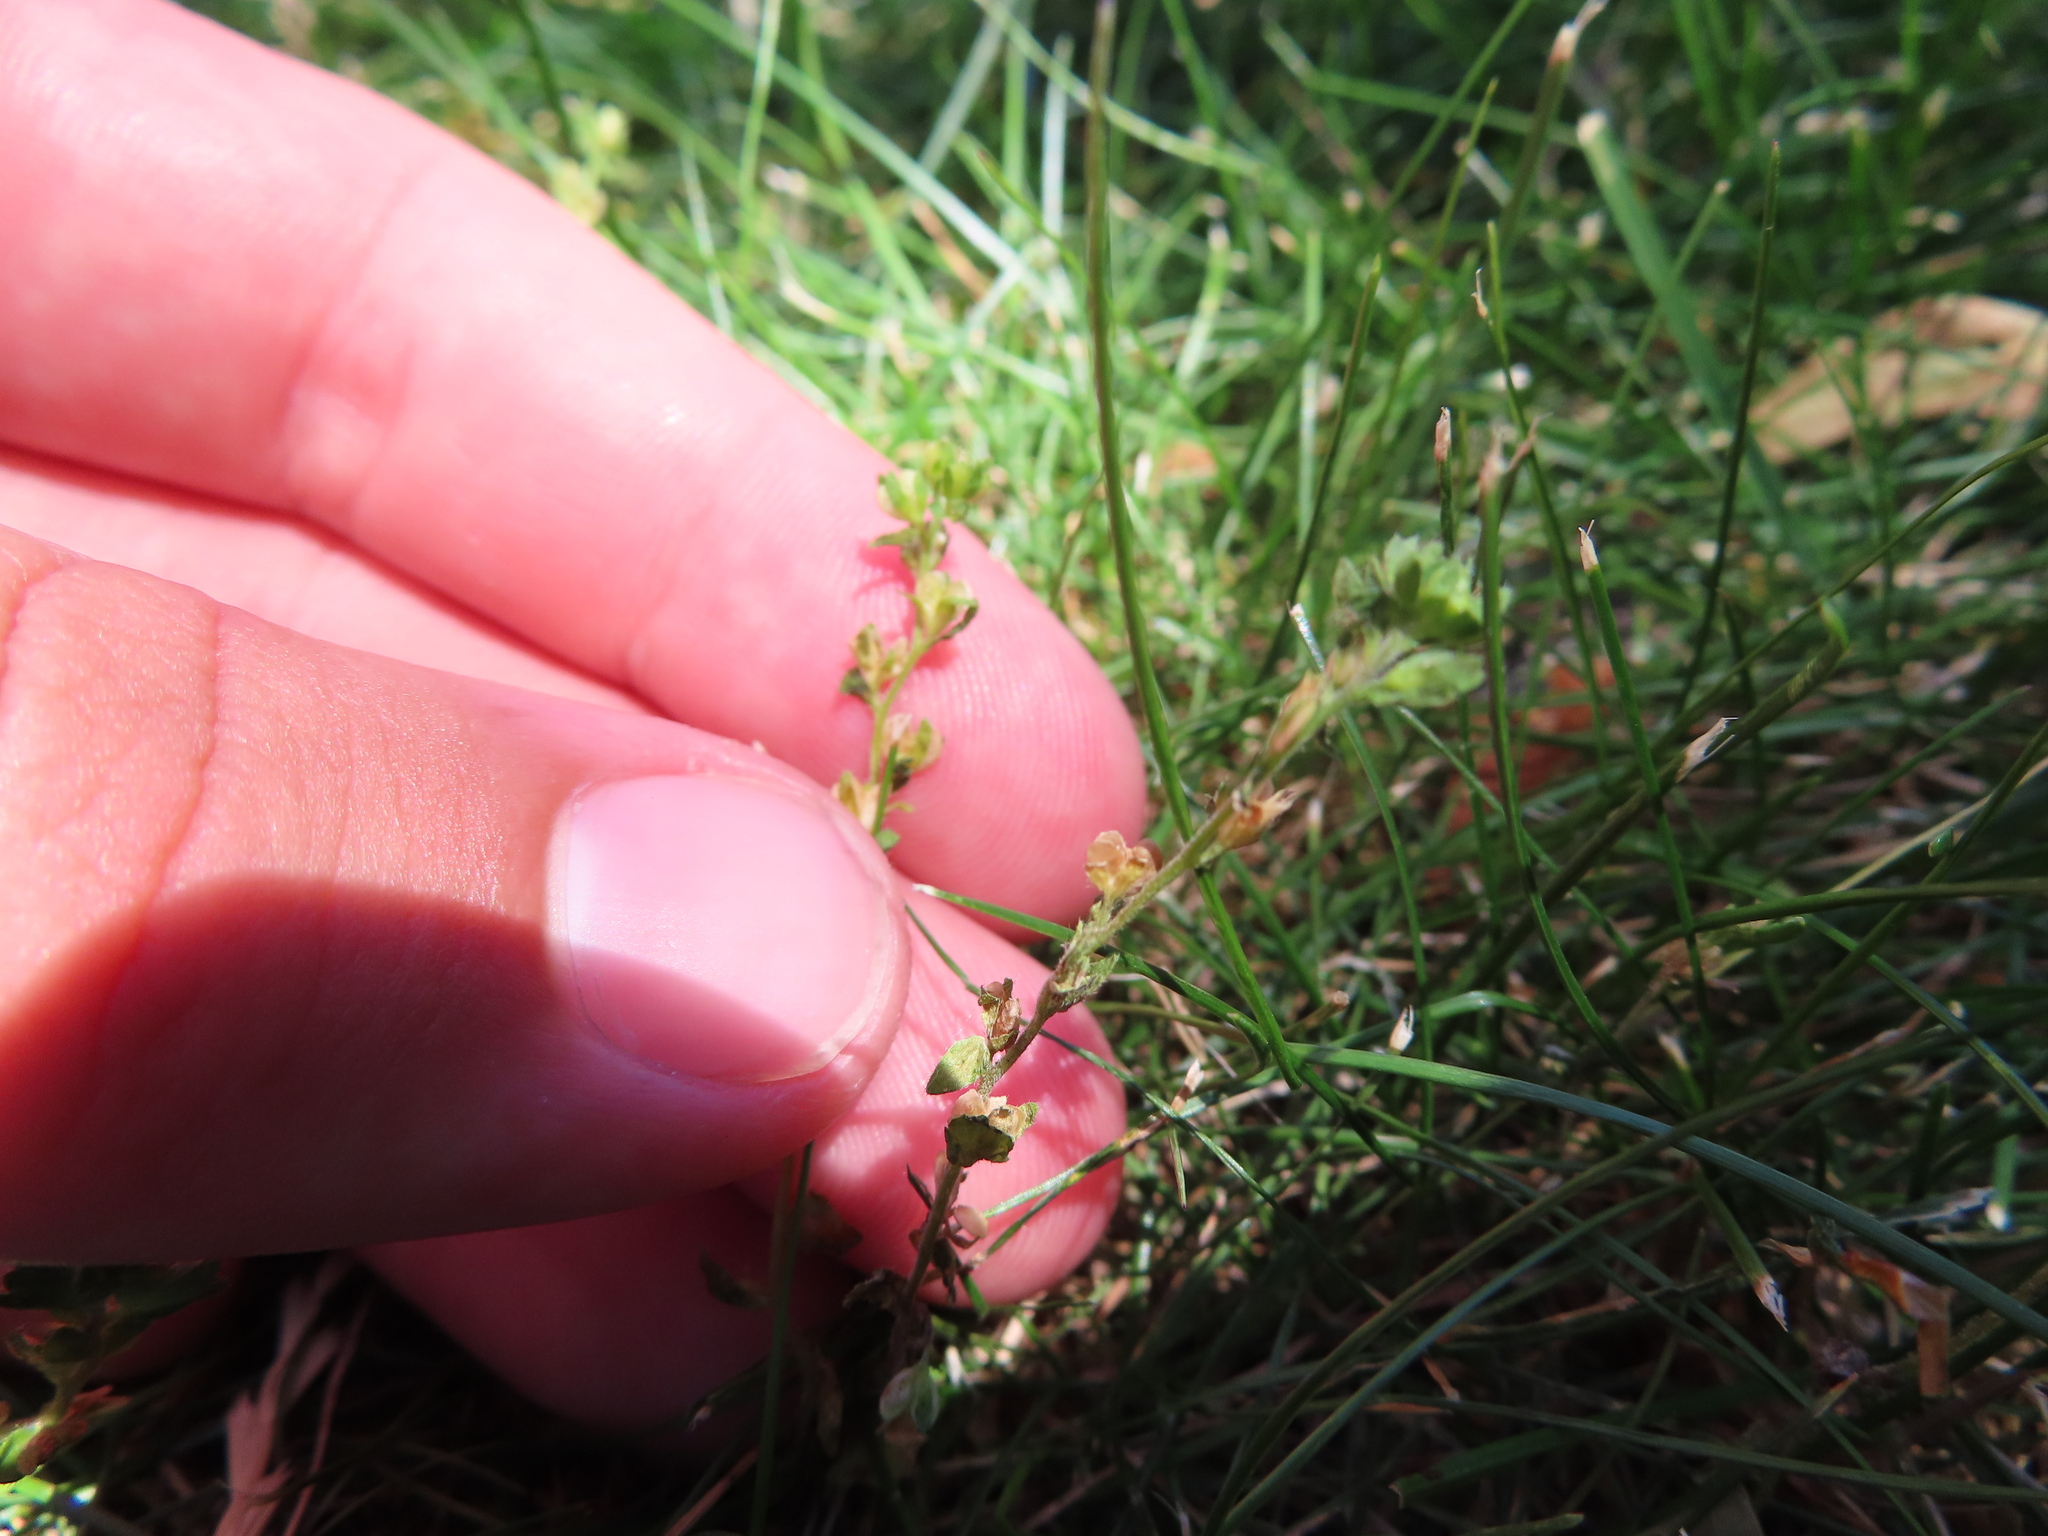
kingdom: Plantae
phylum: Tracheophyta
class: Magnoliopsida
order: Lamiales
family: Plantaginaceae
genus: Veronica
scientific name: Veronica arvensis
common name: Corn speedwell
